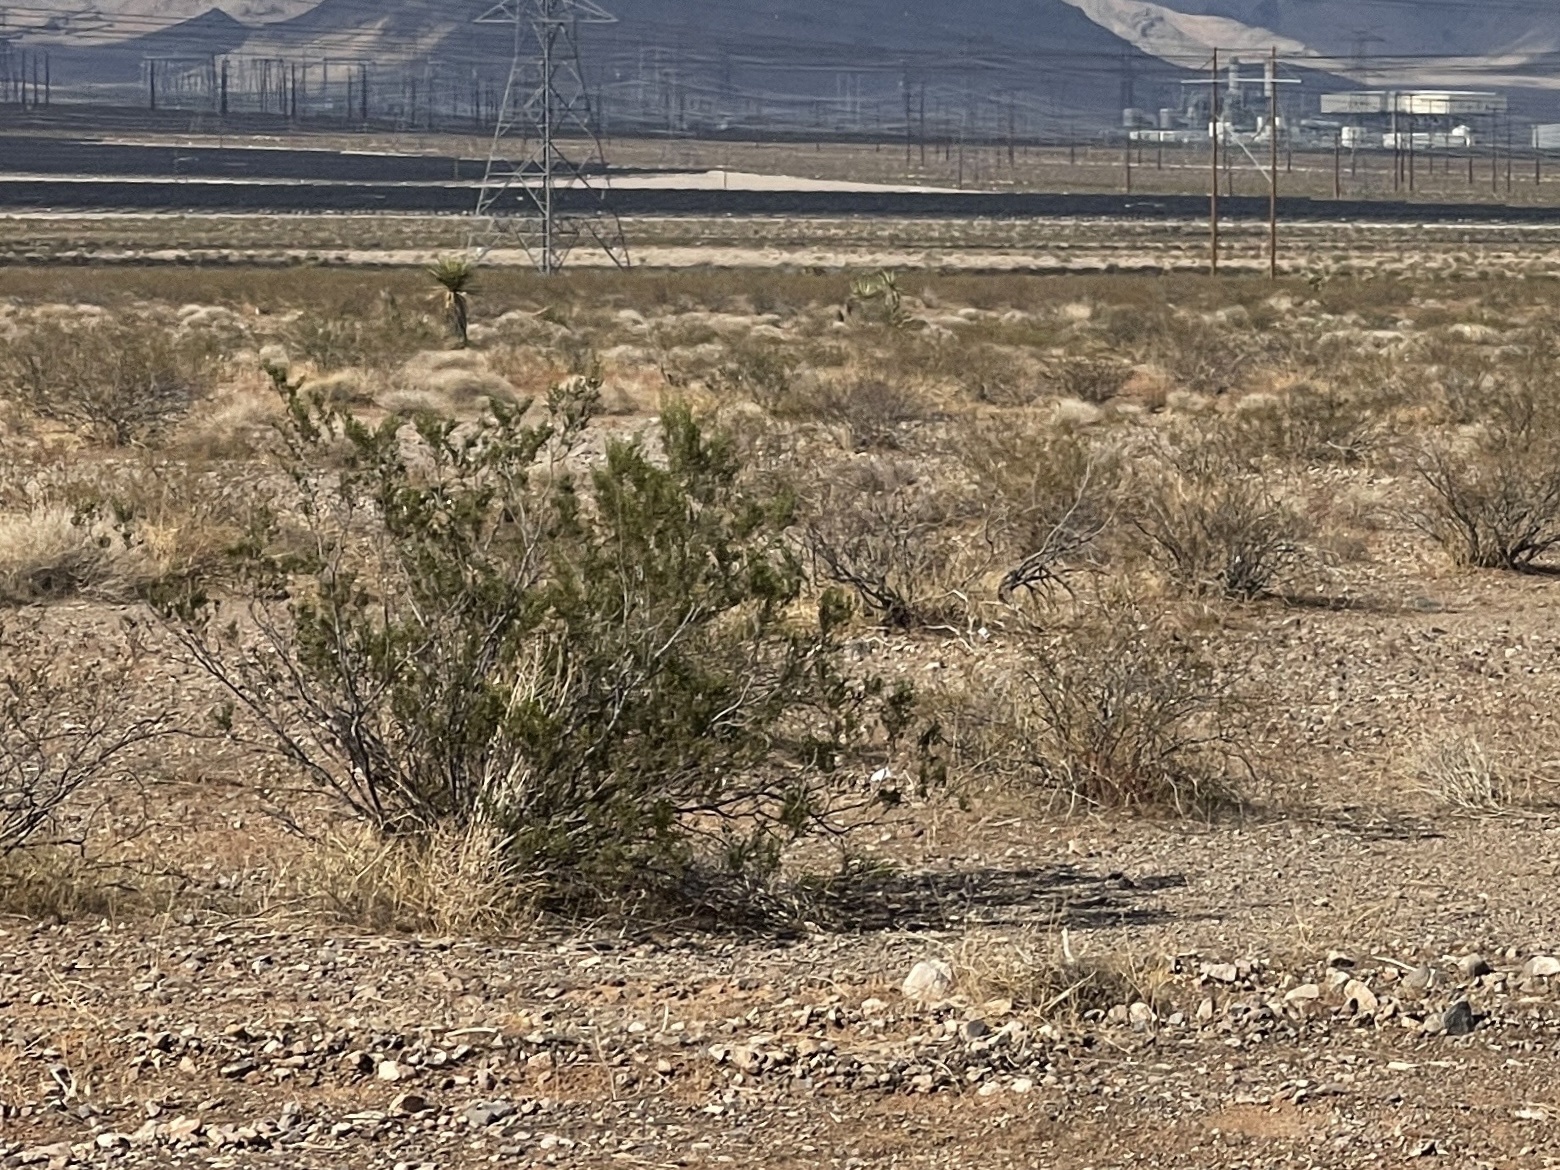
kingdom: Plantae
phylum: Tracheophyta
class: Magnoliopsida
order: Zygophyllales
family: Zygophyllaceae
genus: Larrea
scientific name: Larrea tridentata
